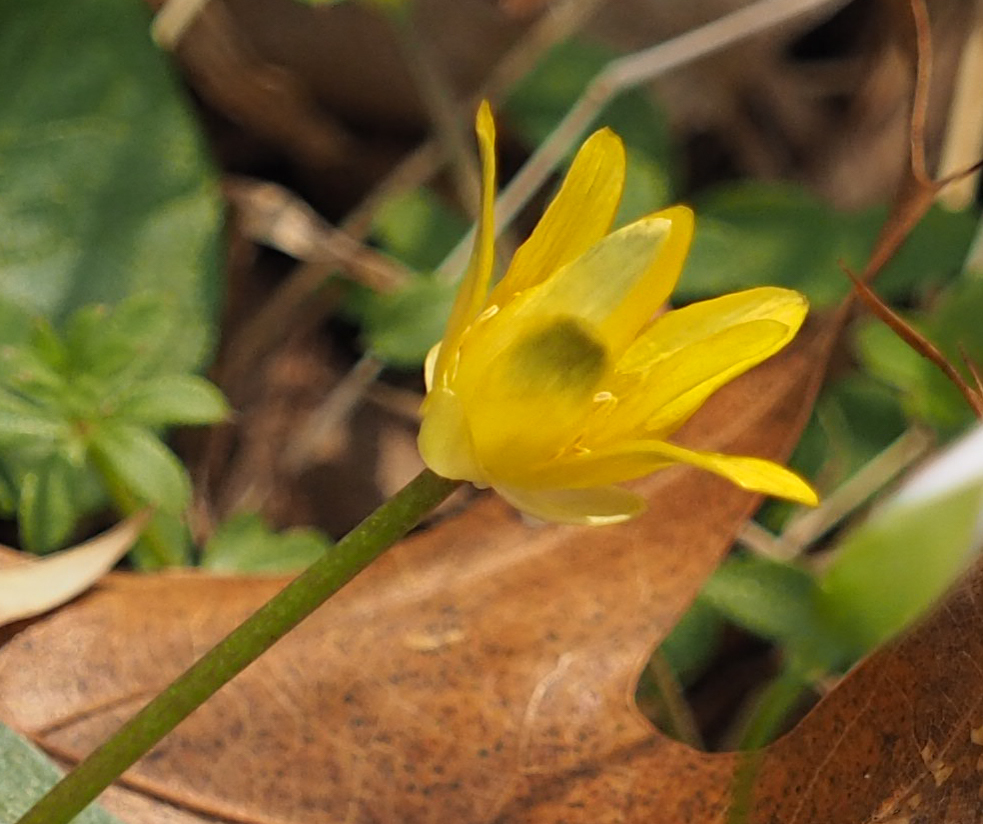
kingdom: Plantae
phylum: Tracheophyta
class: Magnoliopsida
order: Ranunculales
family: Ranunculaceae
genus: Ficaria
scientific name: Ficaria verna
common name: Lesser celandine
